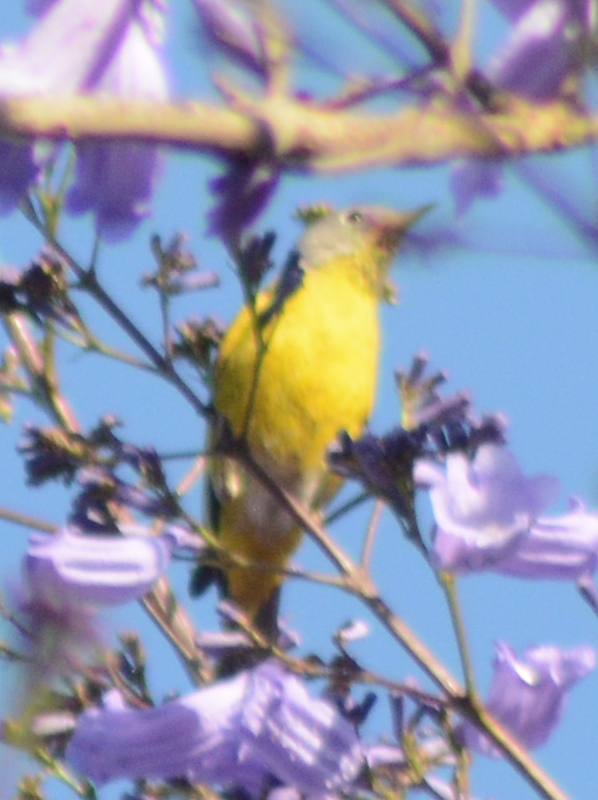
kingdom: Animalia
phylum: Chordata
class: Aves
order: Passeriformes
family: Parulidae
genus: Leiothlypis
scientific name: Leiothlypis ruficapilla
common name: Nashville warbler
